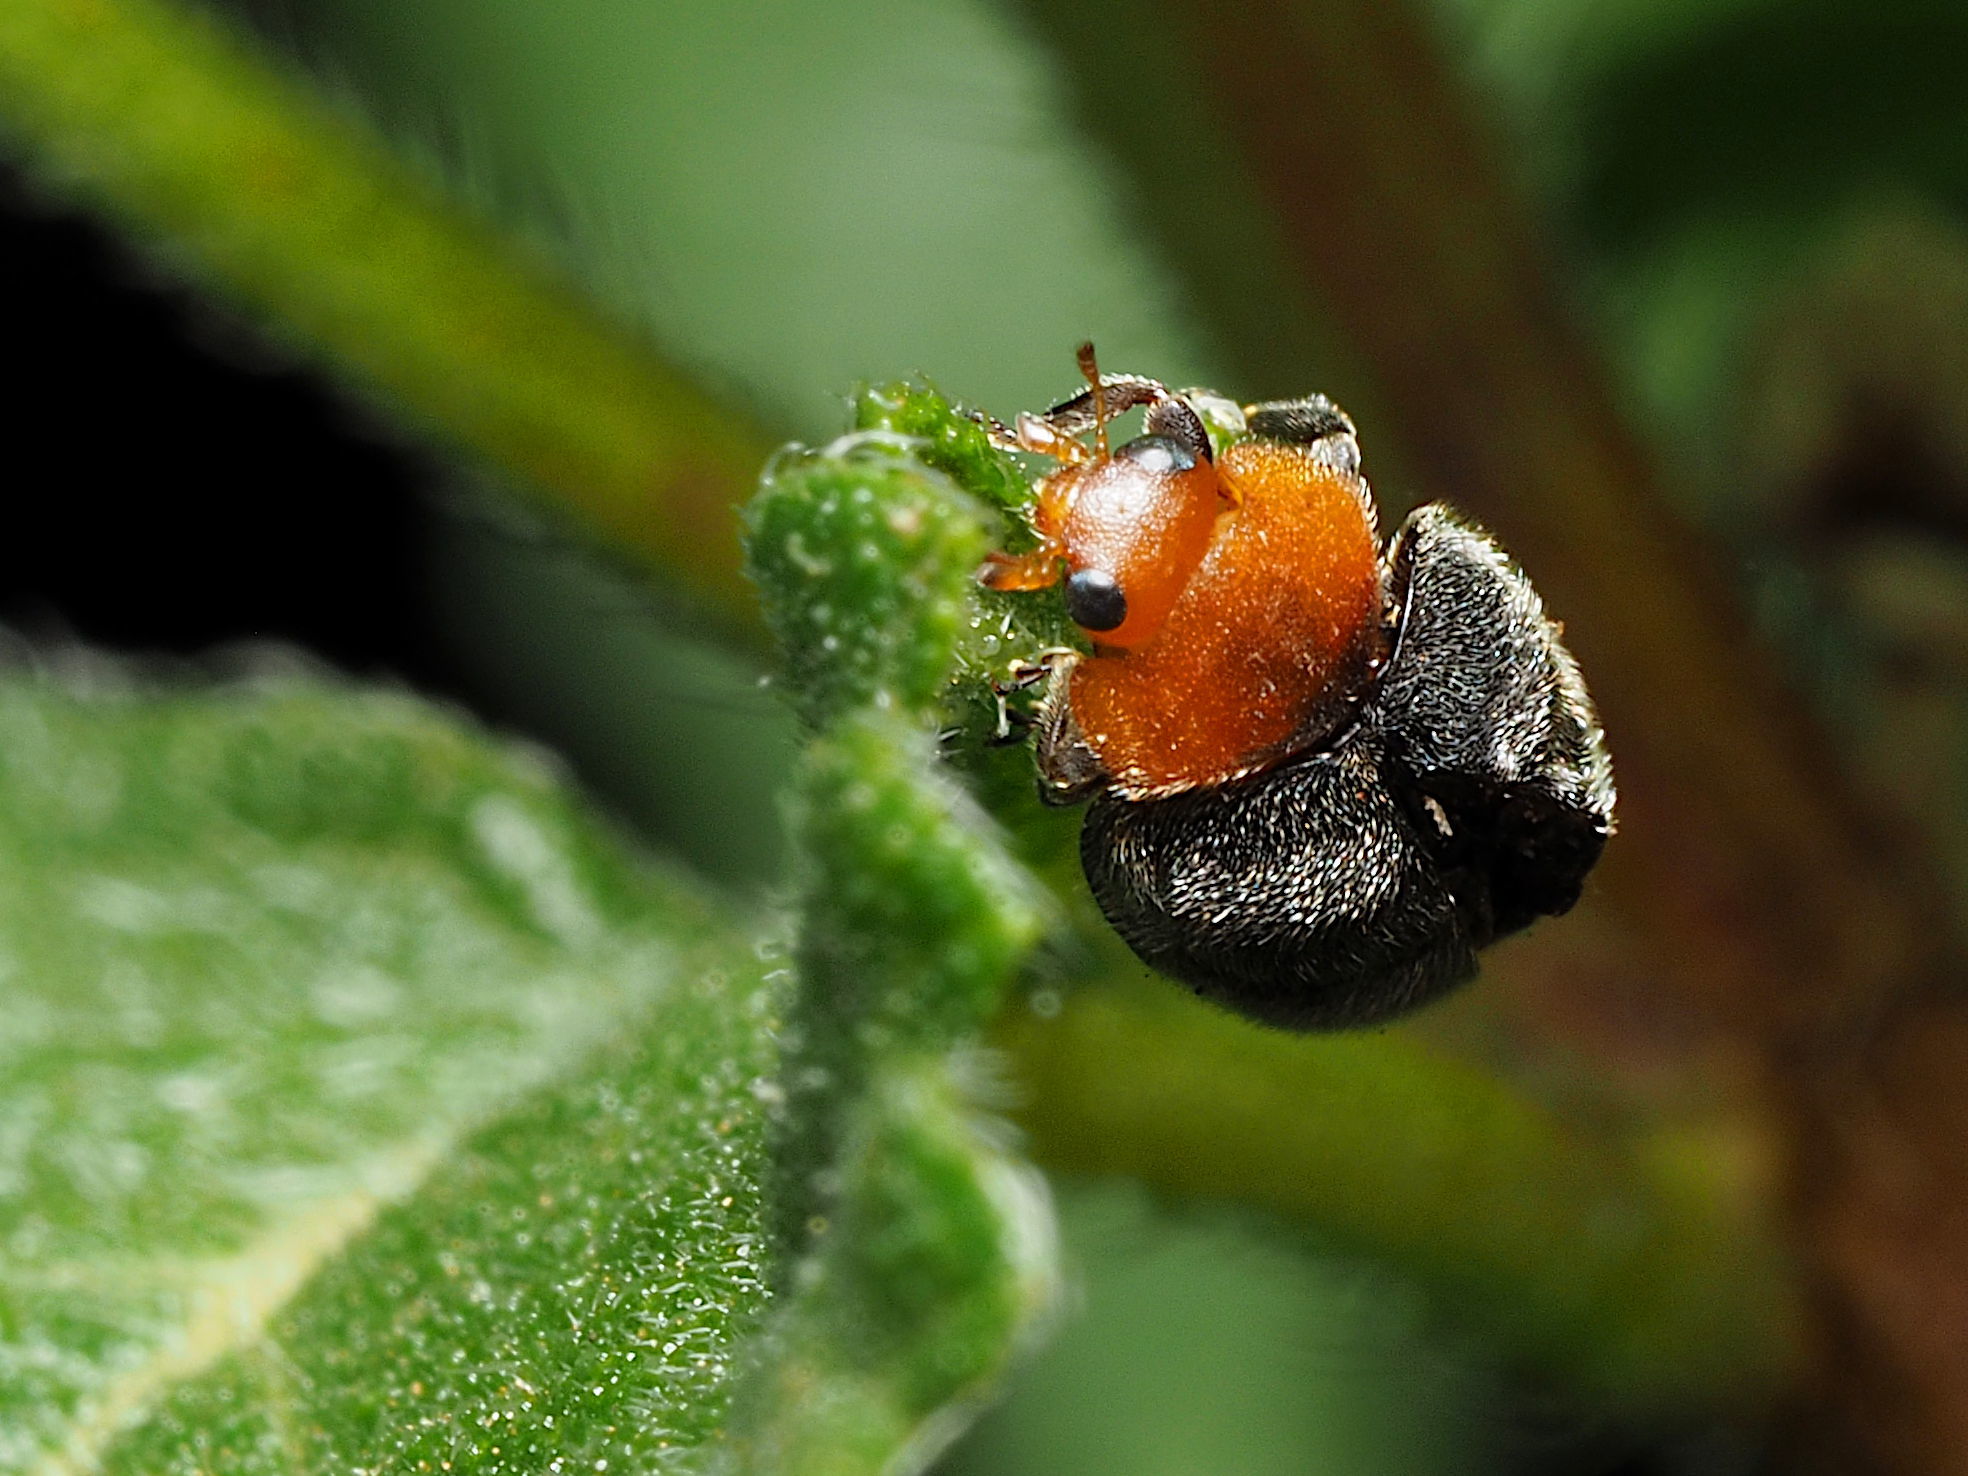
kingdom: Animalia
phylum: Arthropoda
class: Insecta
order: Coleoptera
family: Coccinellidae
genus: Cryptolaemus
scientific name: Cryptolaemus montrouzieri
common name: Mealybug destroyer
